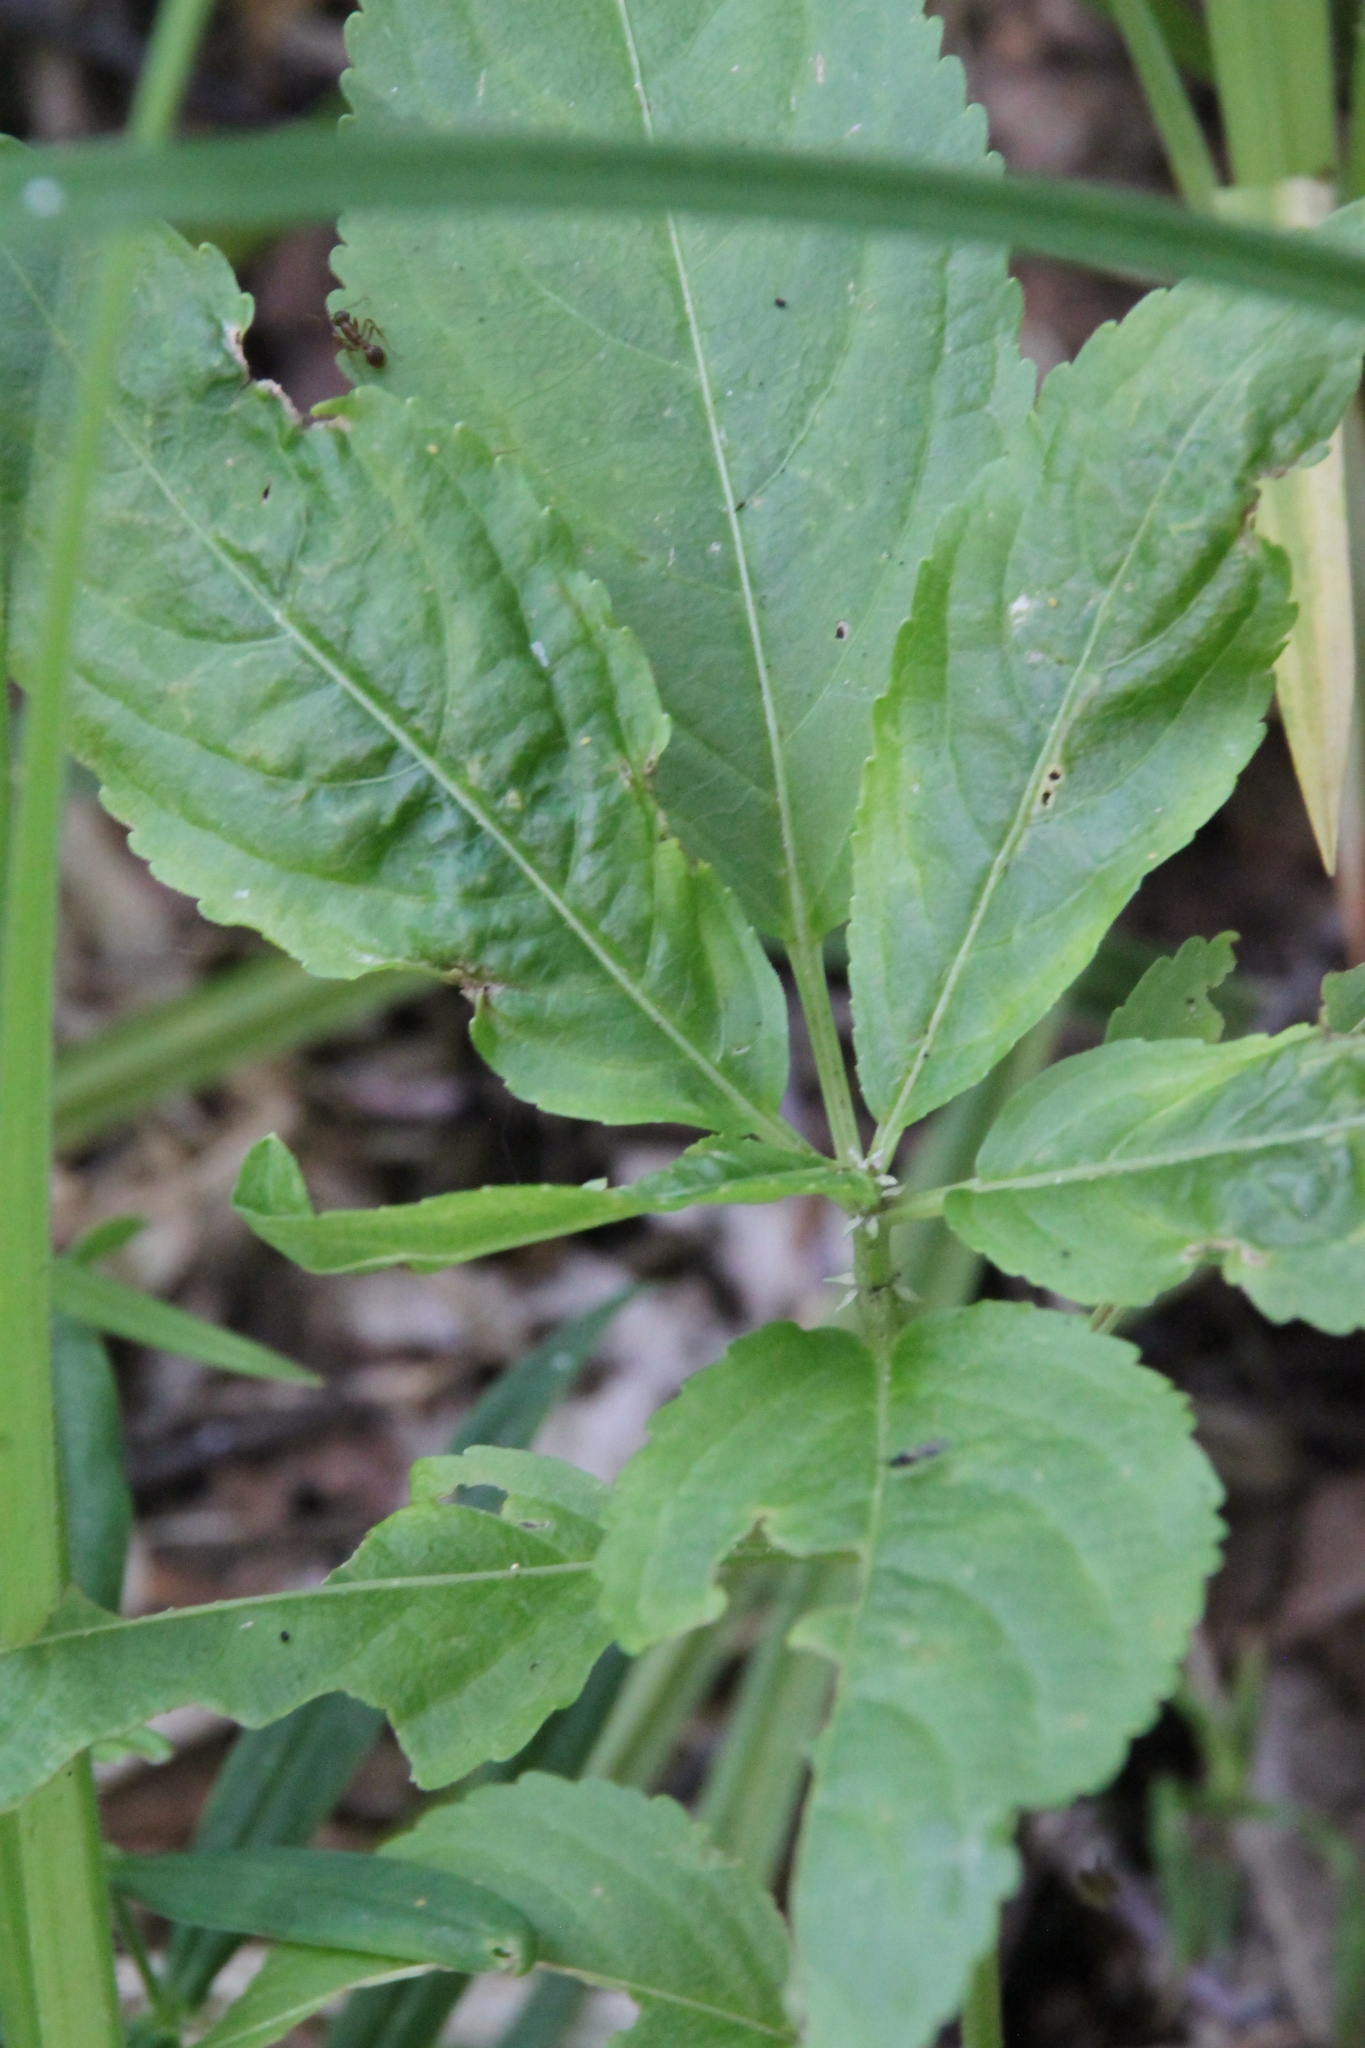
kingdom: Plantae
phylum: Tracheophyta
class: Magnoliopsida
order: Malpighiales
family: Euphorbiaceae
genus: Mercurialis
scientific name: Mercurialis perennis
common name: Dog mercury
